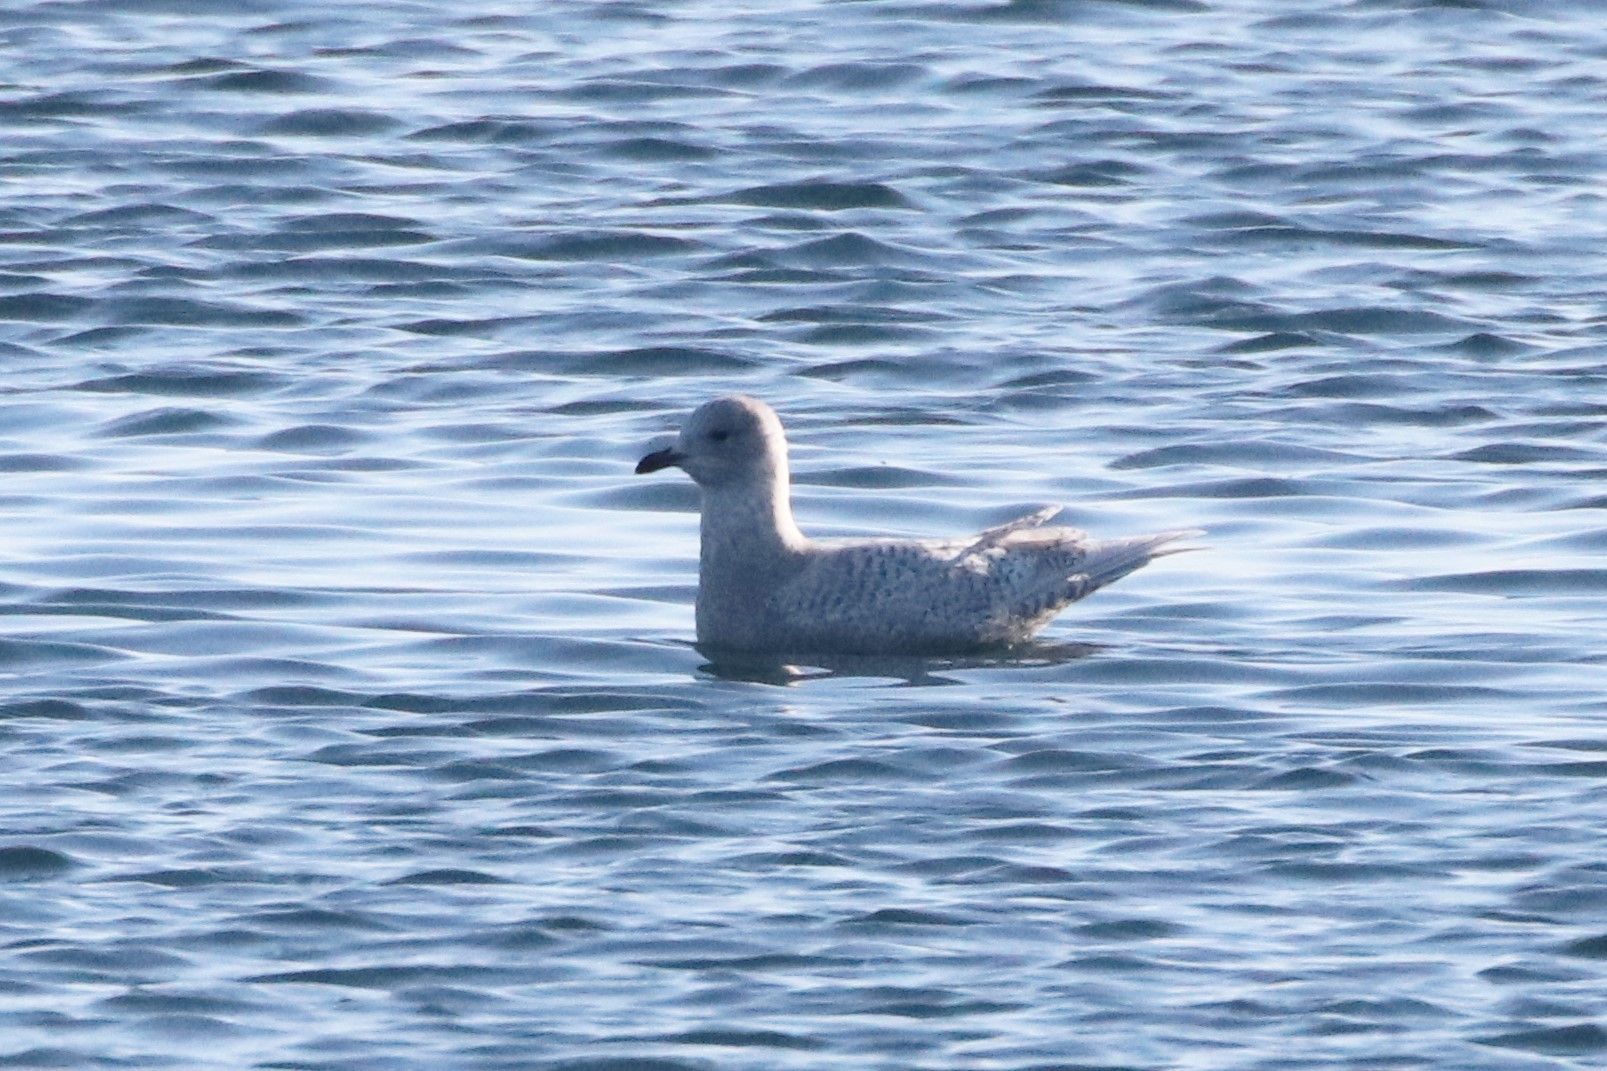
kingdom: Animalia
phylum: Chordata
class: Aves
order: Charadriiformes
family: Laridae
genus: Larus
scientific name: Larus glaucoides
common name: Iceland gull
